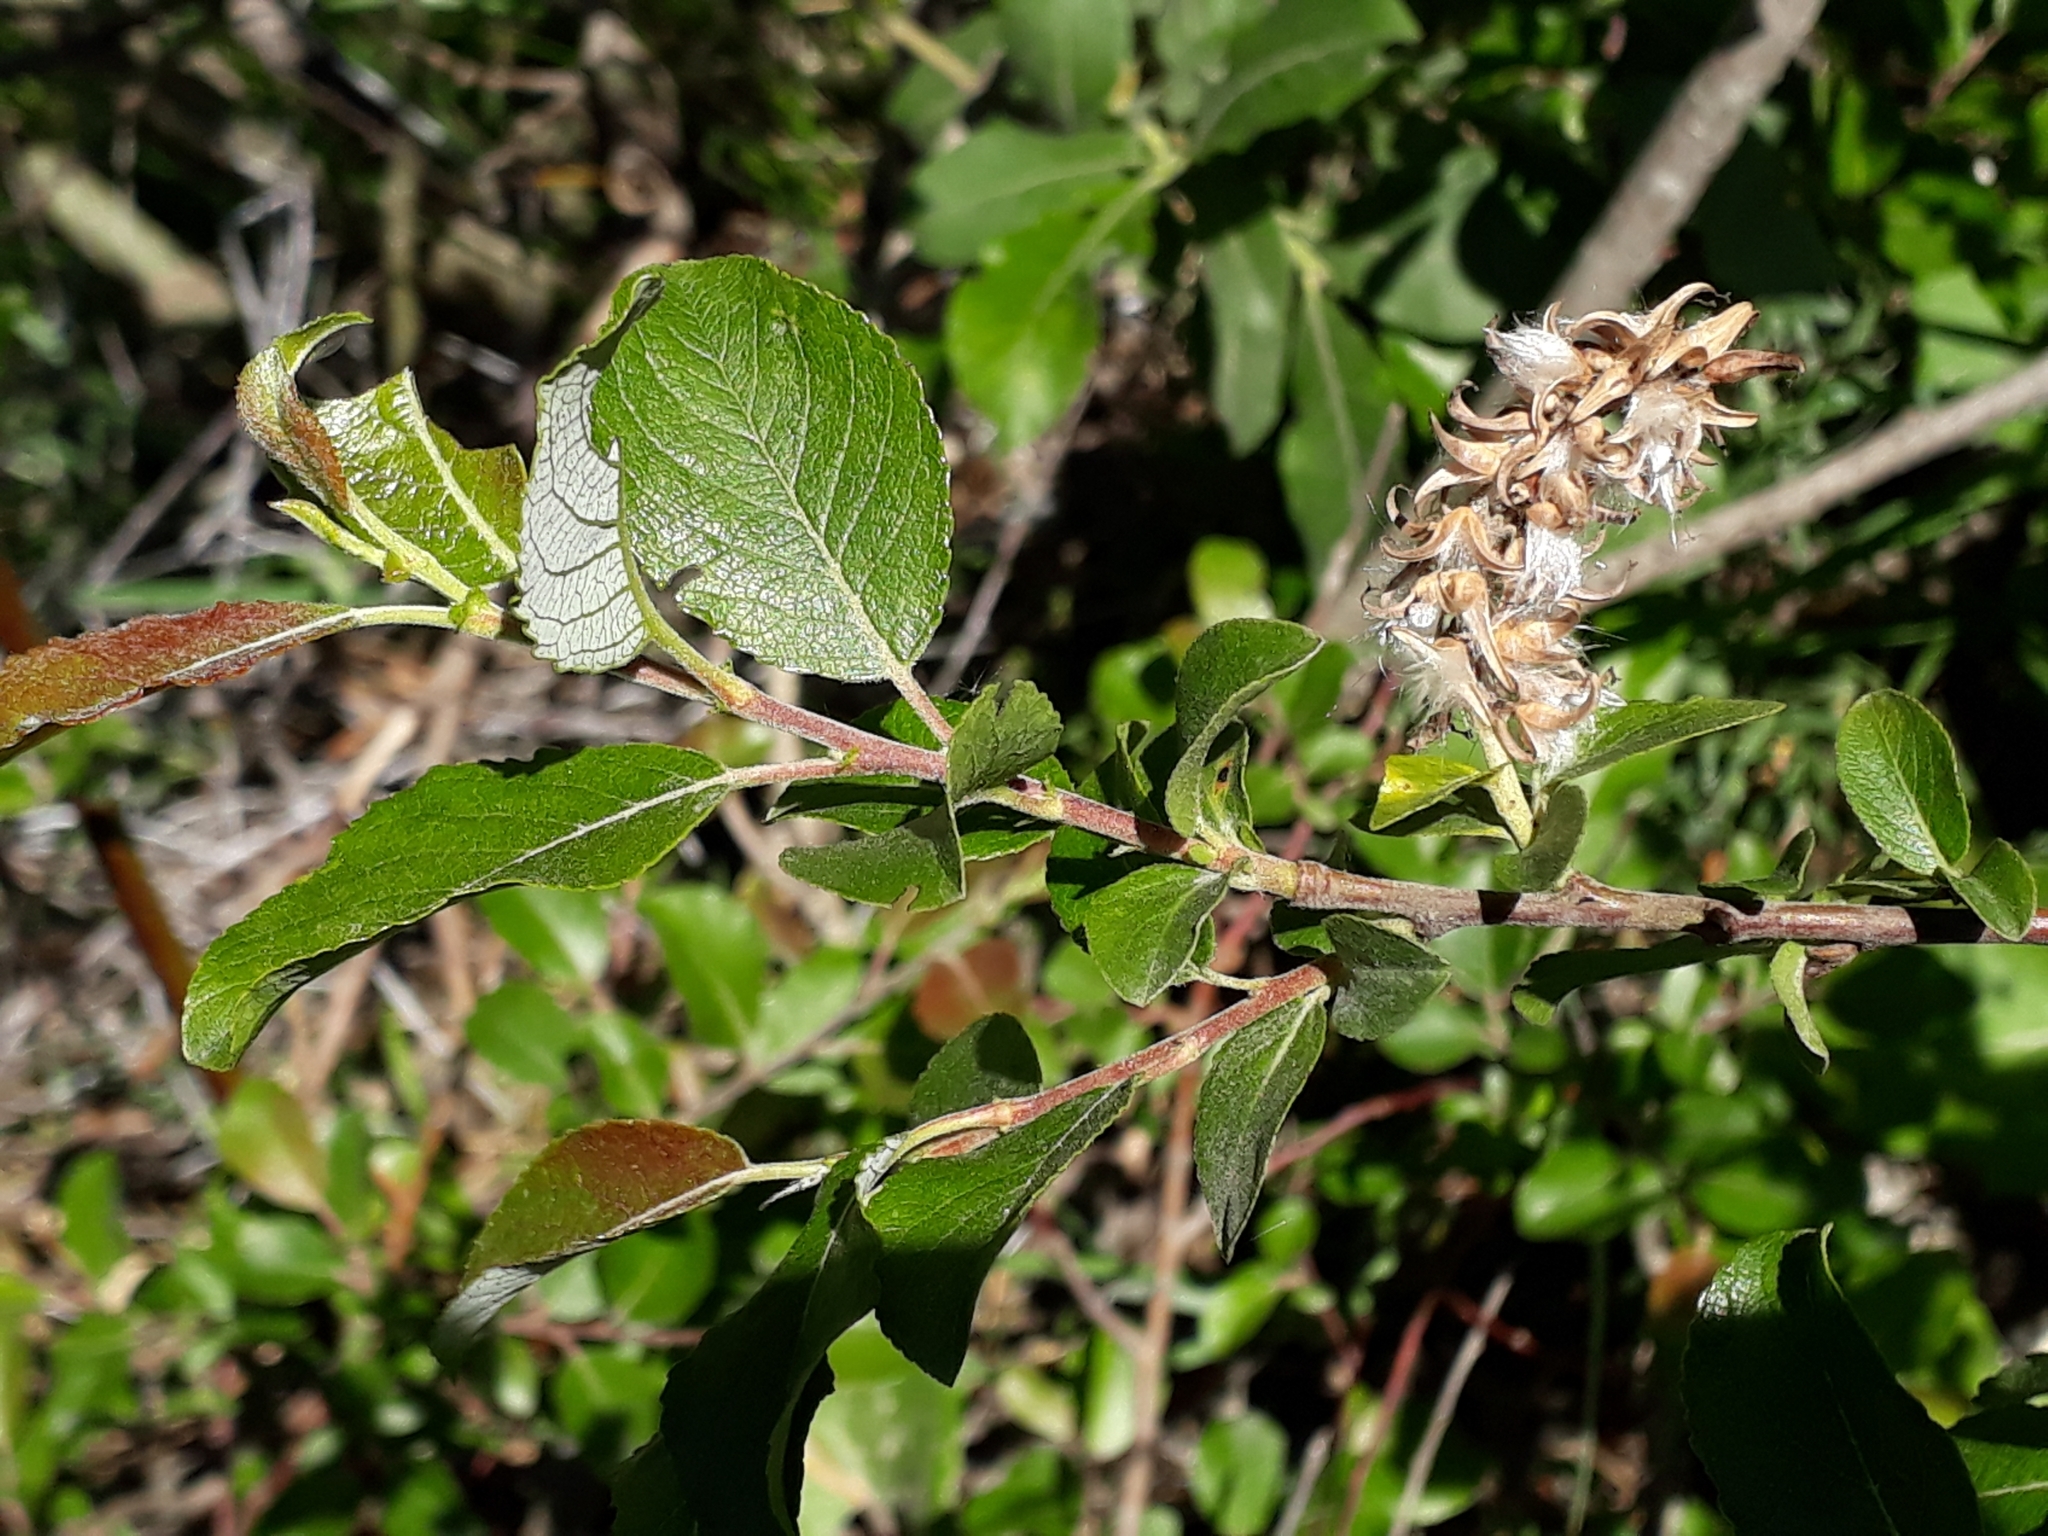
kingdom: Plantae
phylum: Tracheophyta
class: Magnoliopsida
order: Malpighiales
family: Salicaceae
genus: Salix
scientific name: Salix myrsinifolia
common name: Dark-leaved willow
